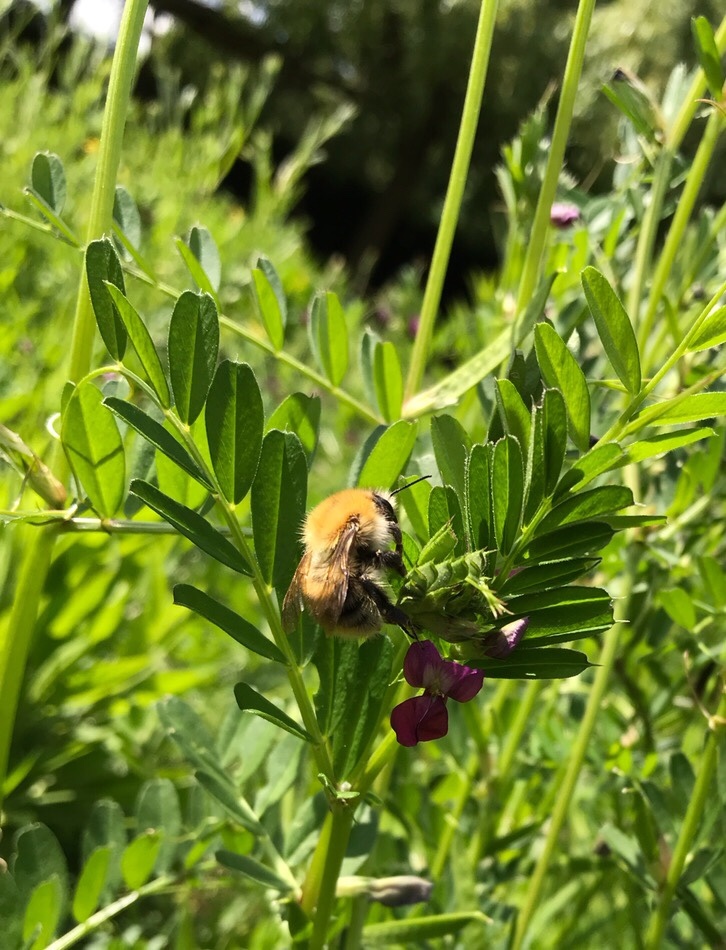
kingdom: Animalia
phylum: Arthropoda
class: Insecta
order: Hymenoptera
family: Apidae
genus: Bombus
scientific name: Bombus pascuorum
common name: Common carder bee
